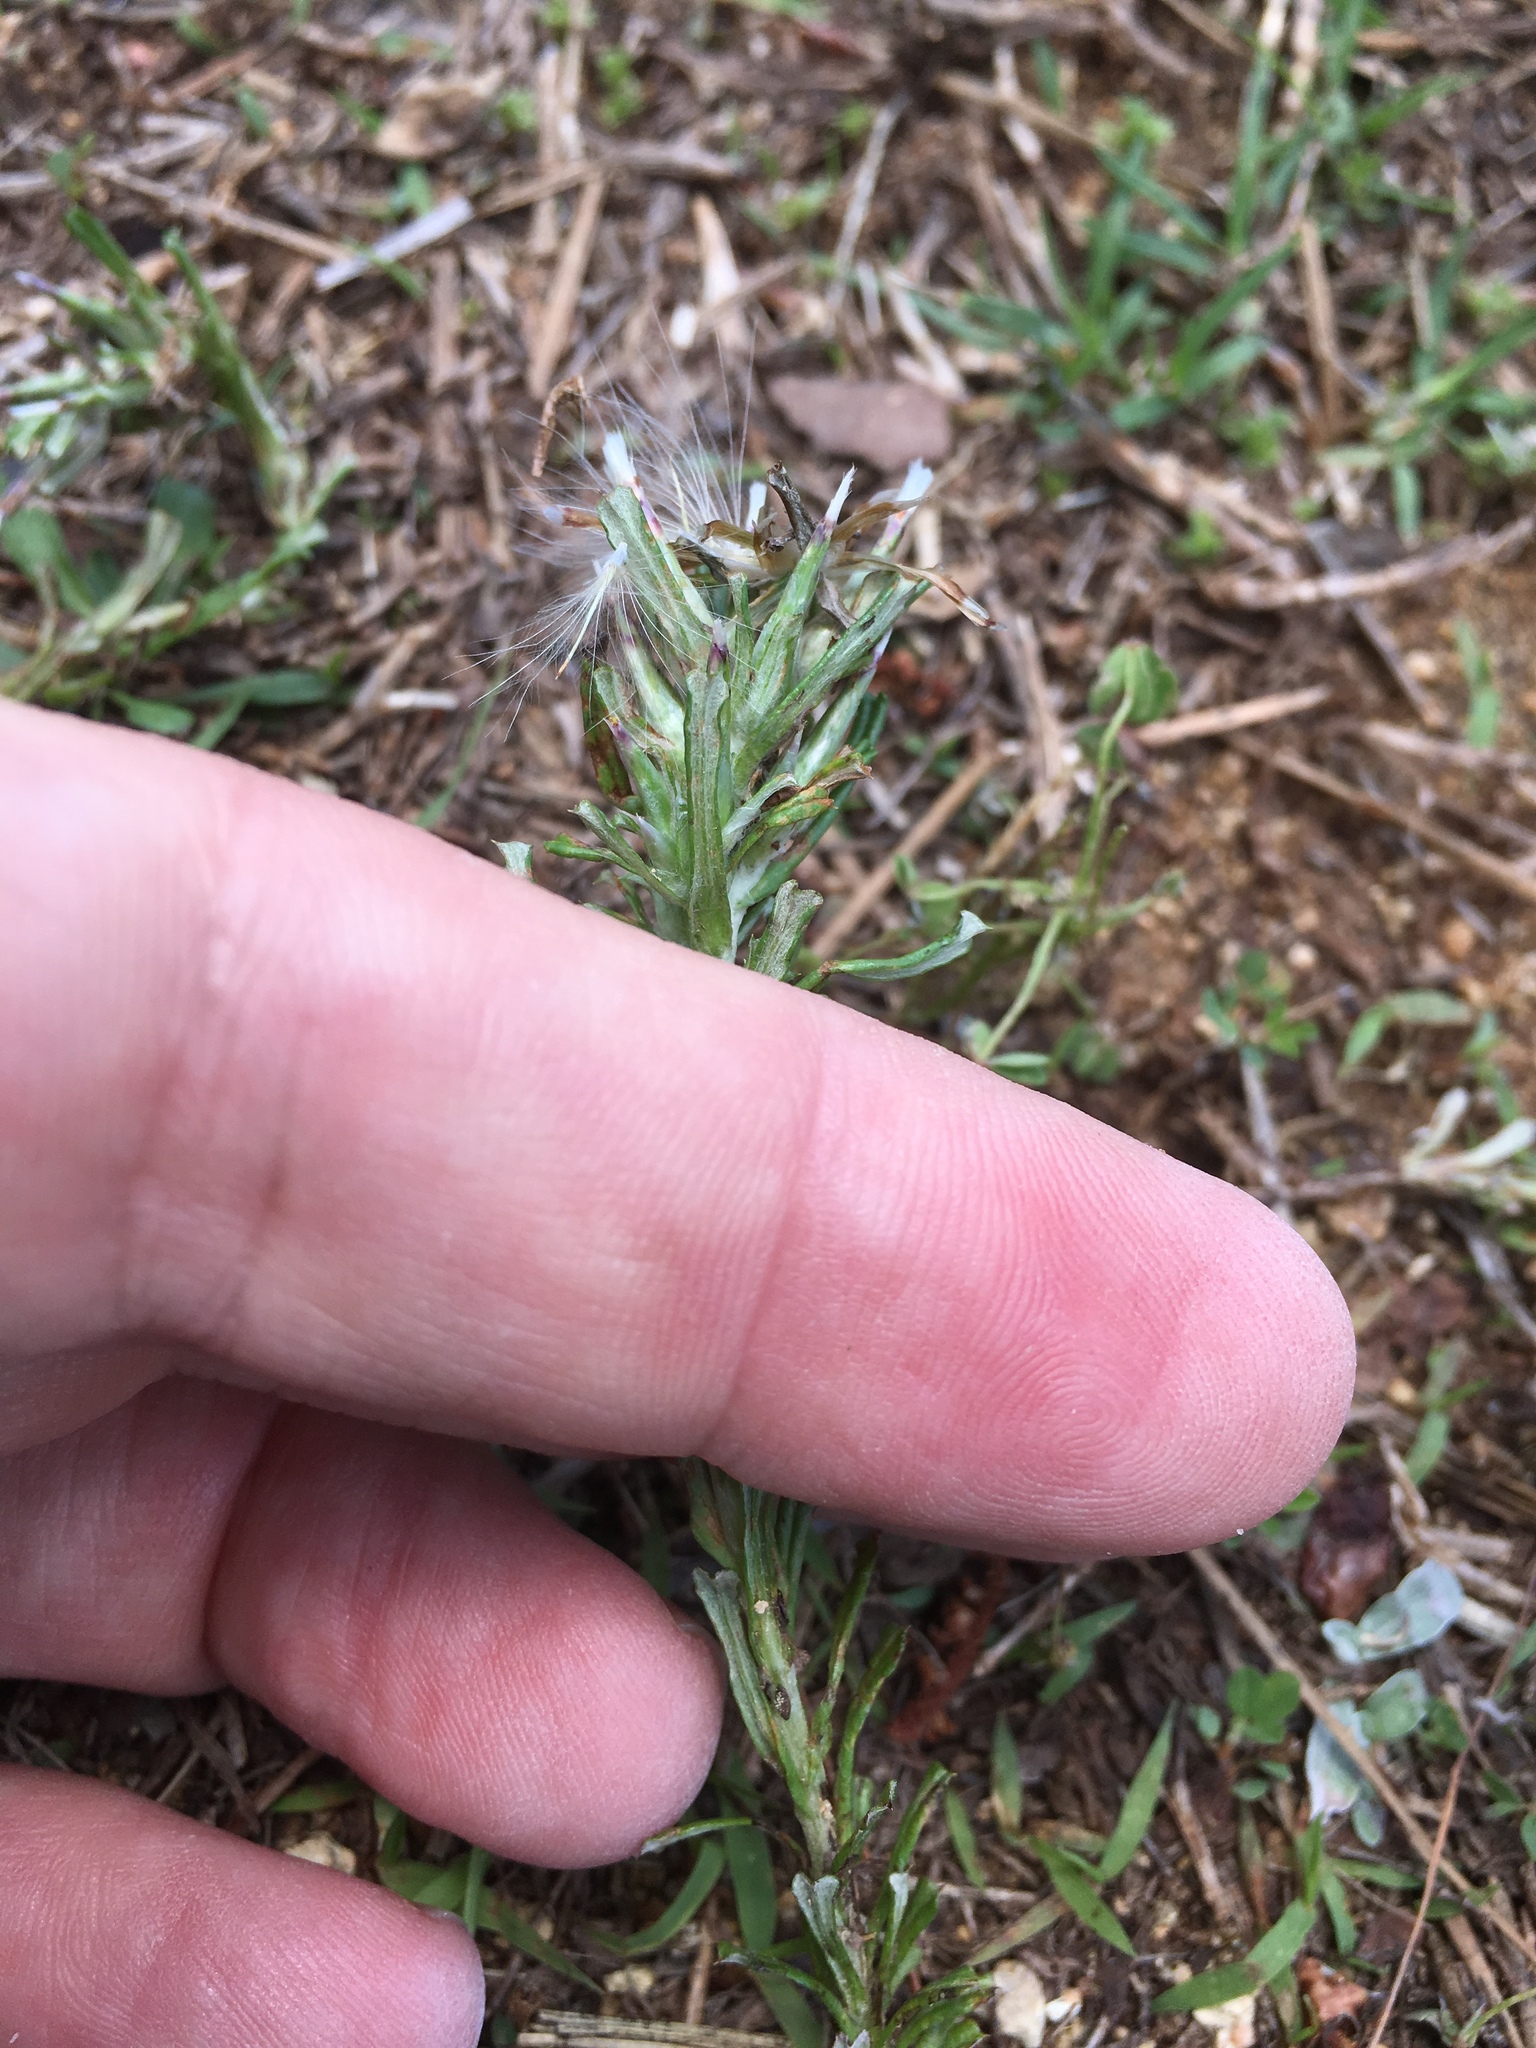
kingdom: Plantae
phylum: Tracheophyta
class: Magnoliopsida
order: Asterales
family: Asteraceae
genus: Facelis
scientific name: Facelis retusa
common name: Annual trampweed
